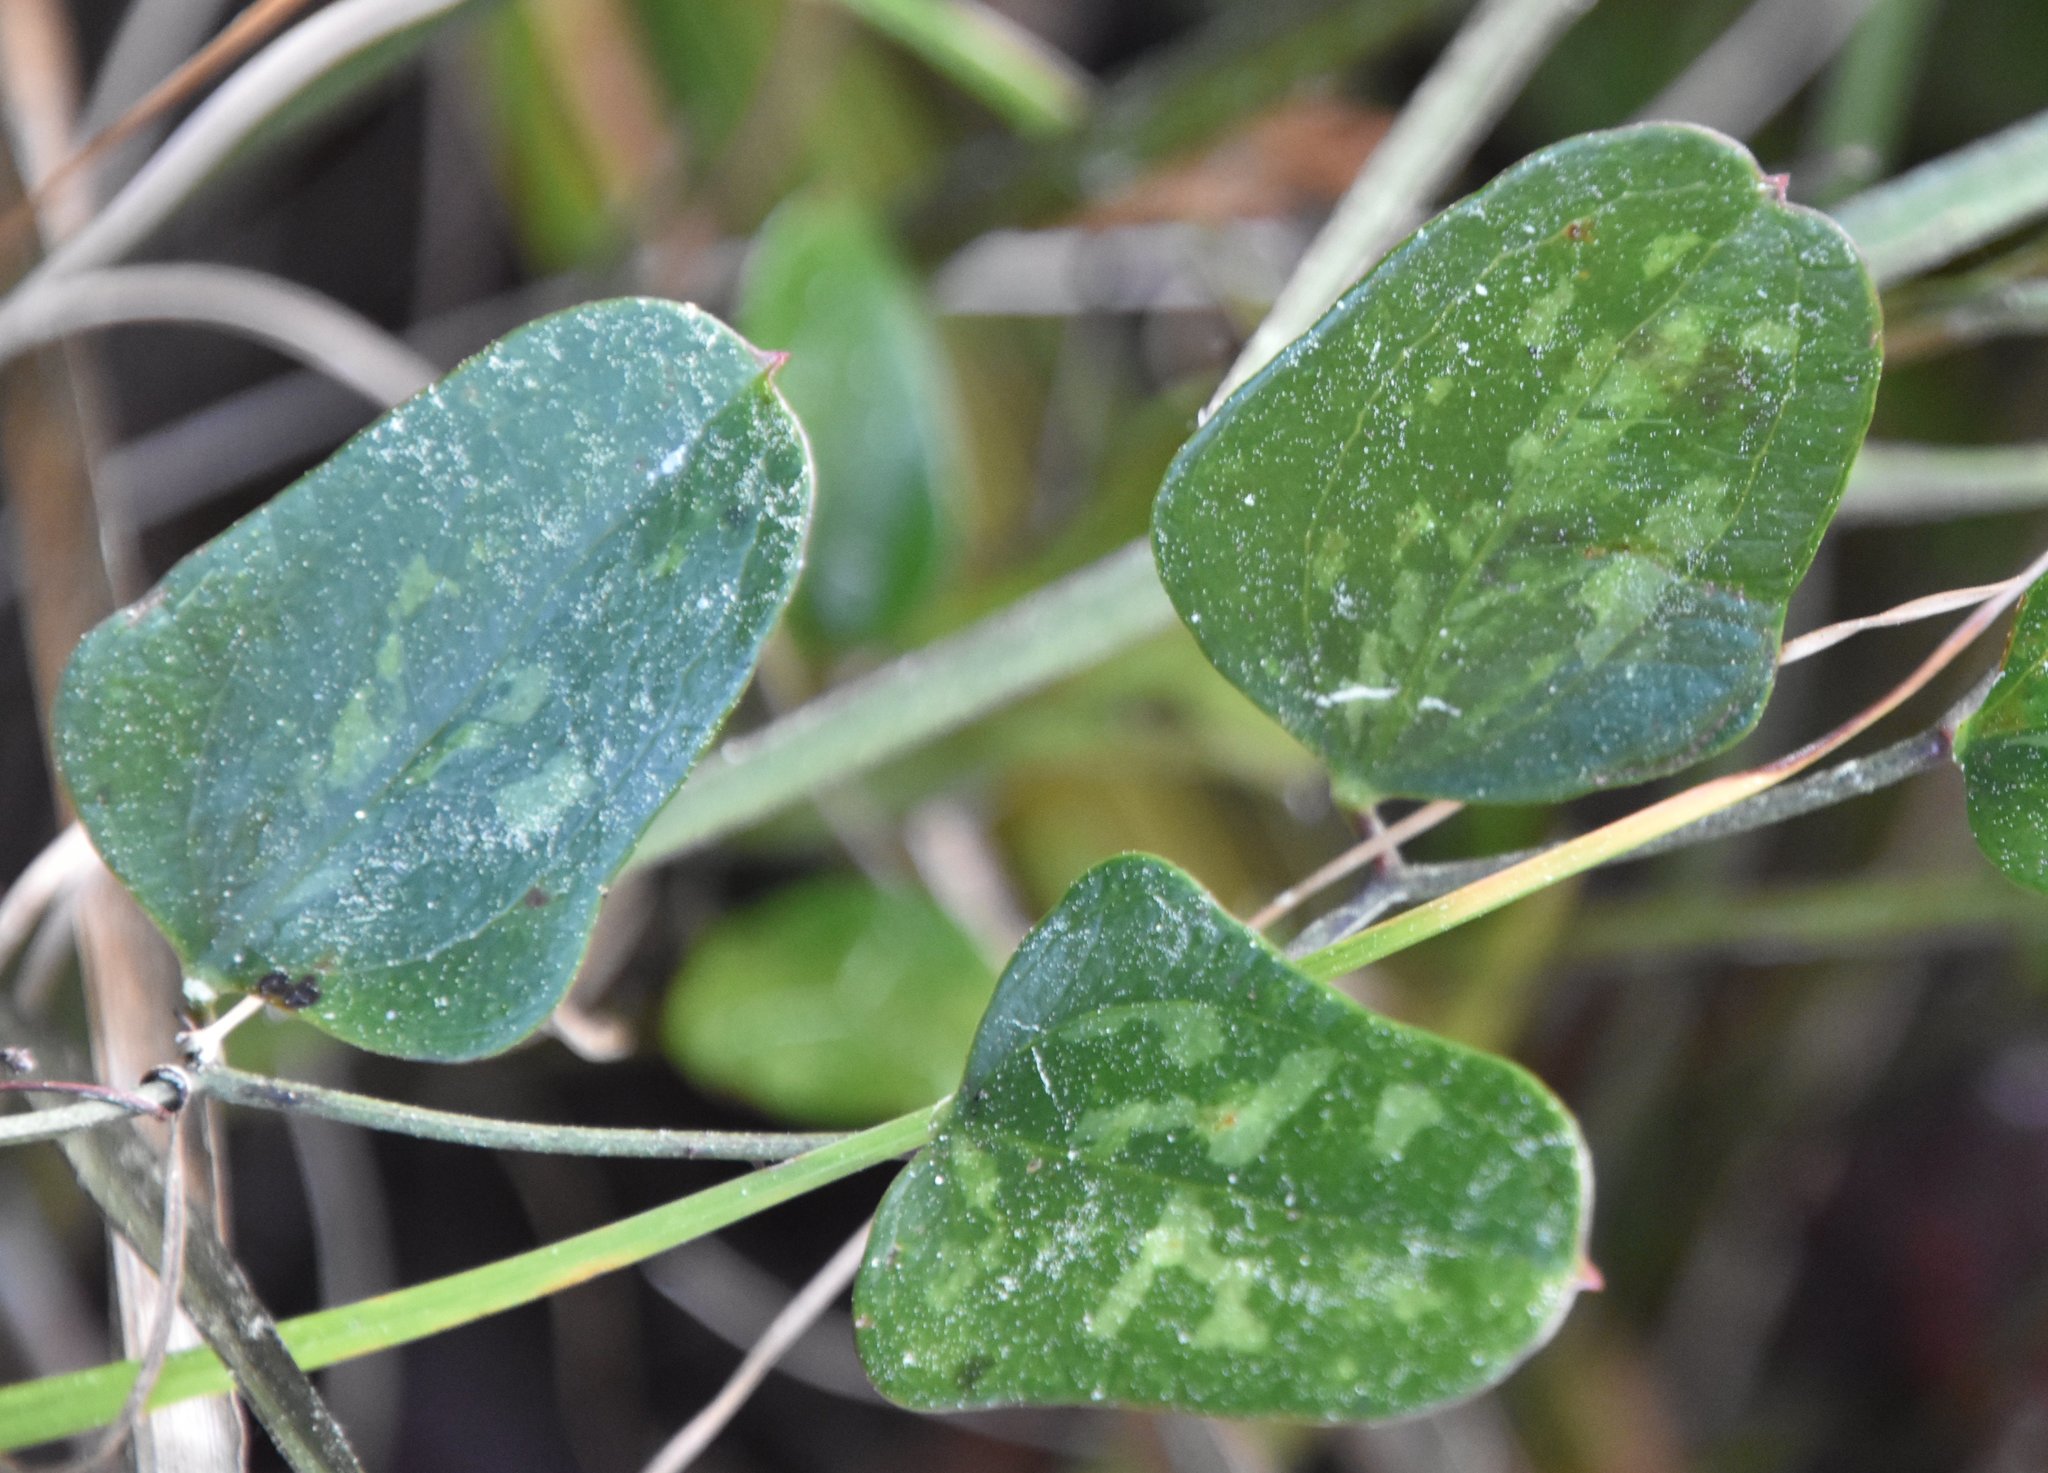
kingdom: Plantae
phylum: Tracheophyta
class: Liliopsida
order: Liliales
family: Smilacaceae
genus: Smilax
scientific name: Smilax auriculata
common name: Wild bamboo
